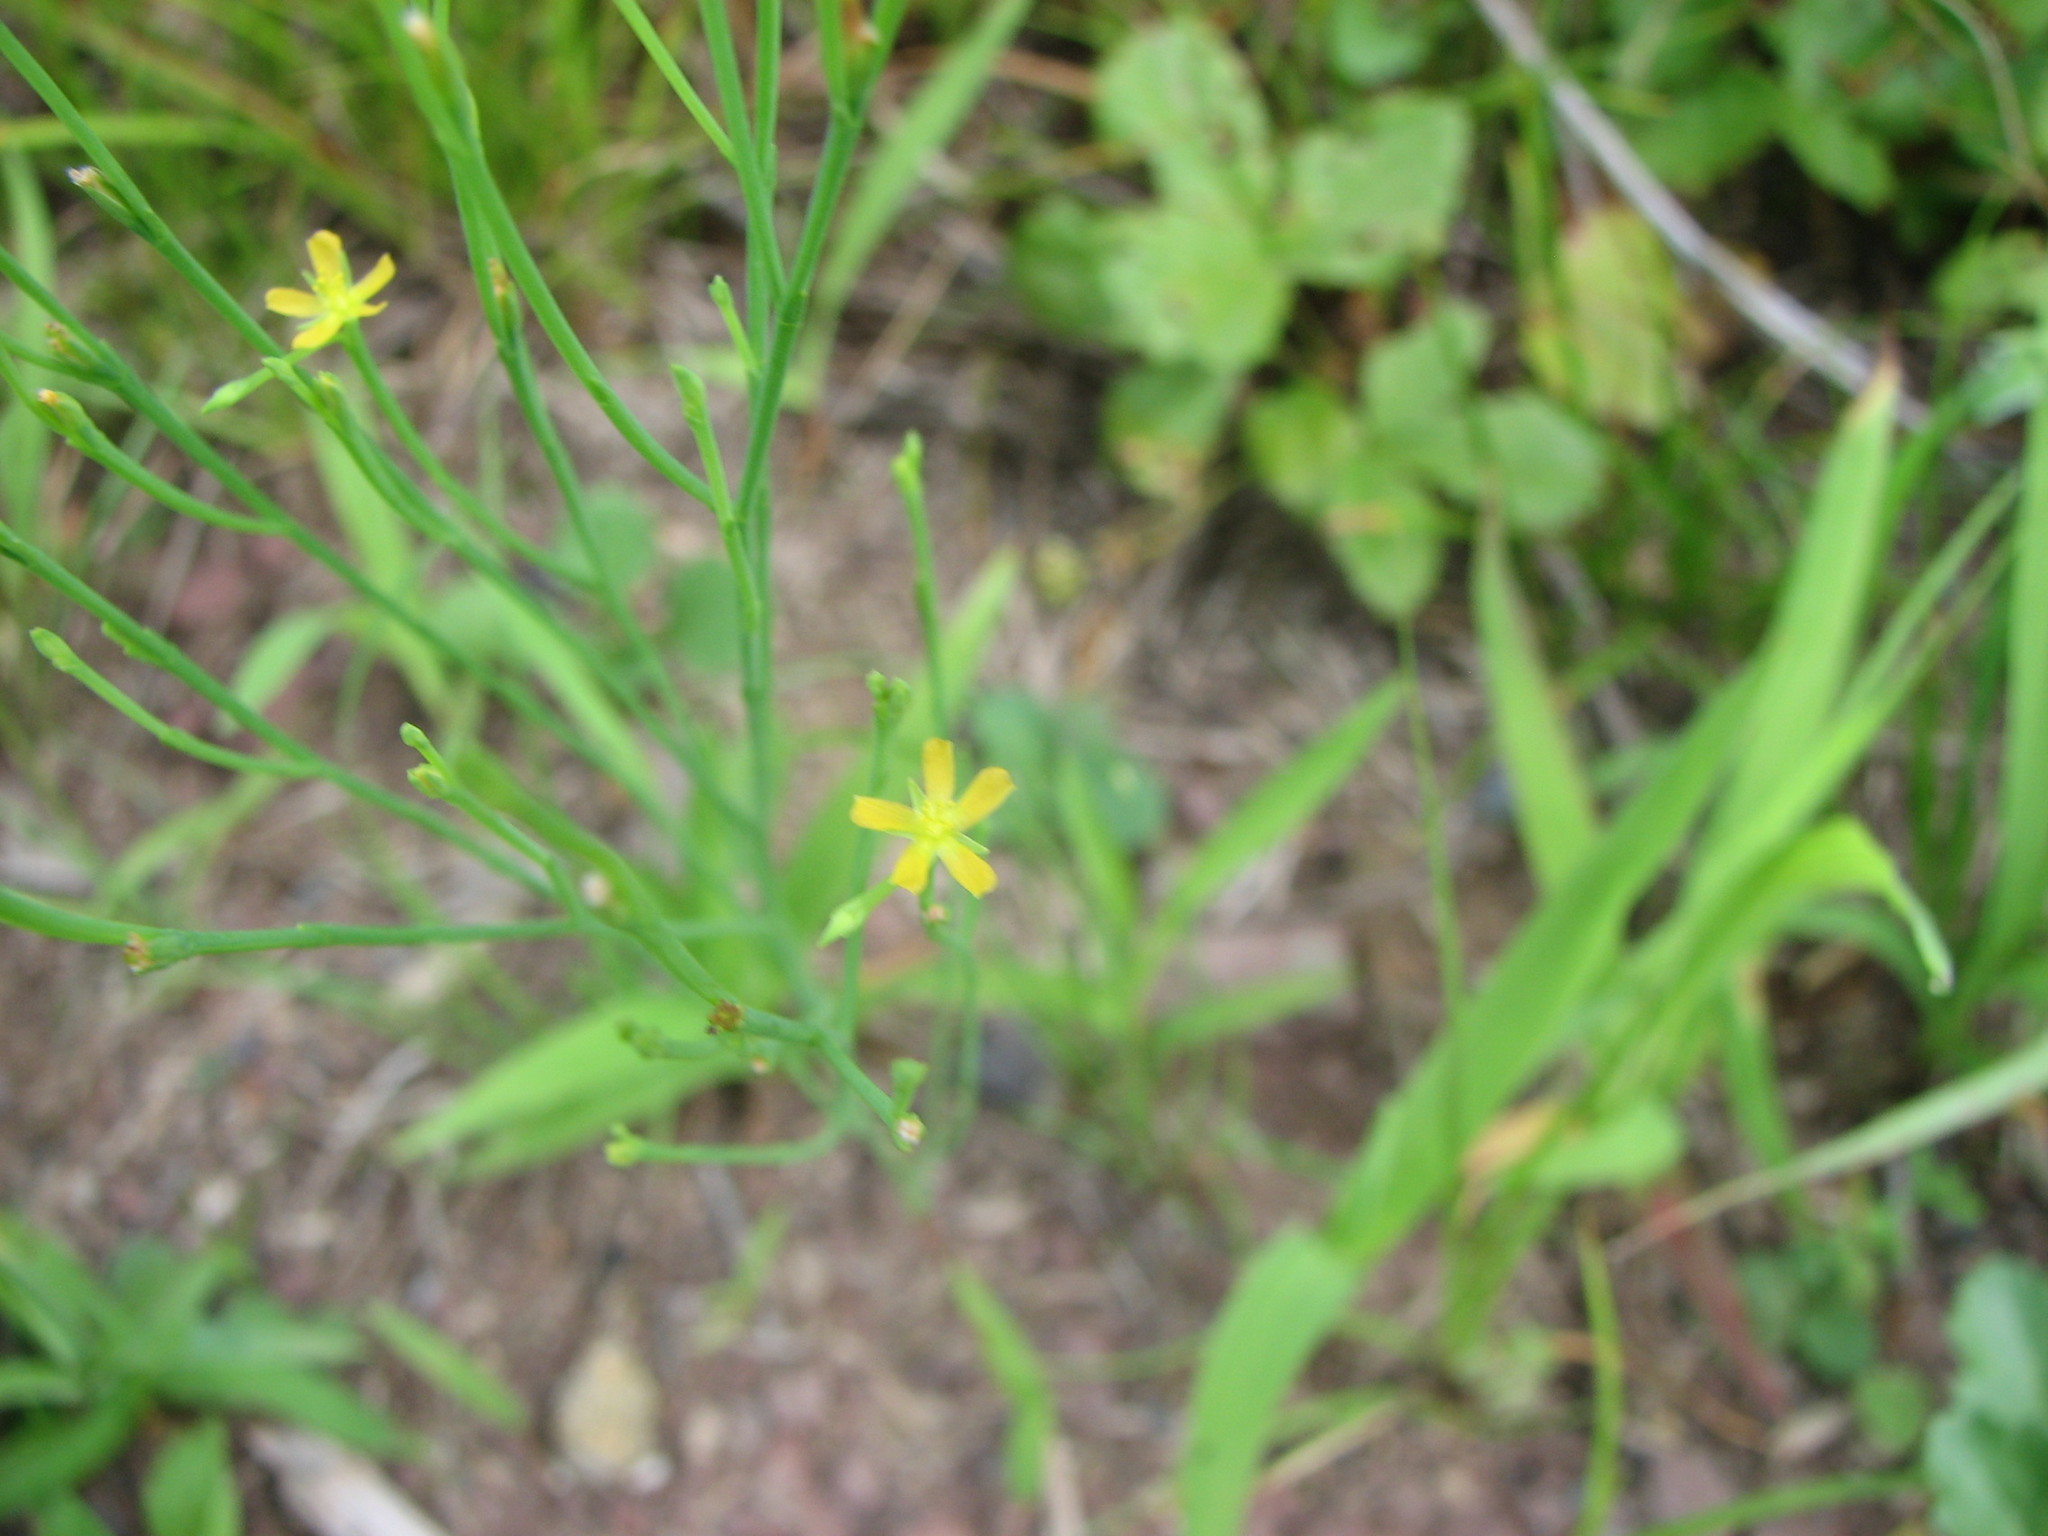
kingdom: Plantae
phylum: Tracheophyta
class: Magnoliopsida
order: Malpighiales
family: Hypericaceae
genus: Hypericum
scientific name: Hypericum gentianoides
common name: Gentian-leaved st. john's-wort
